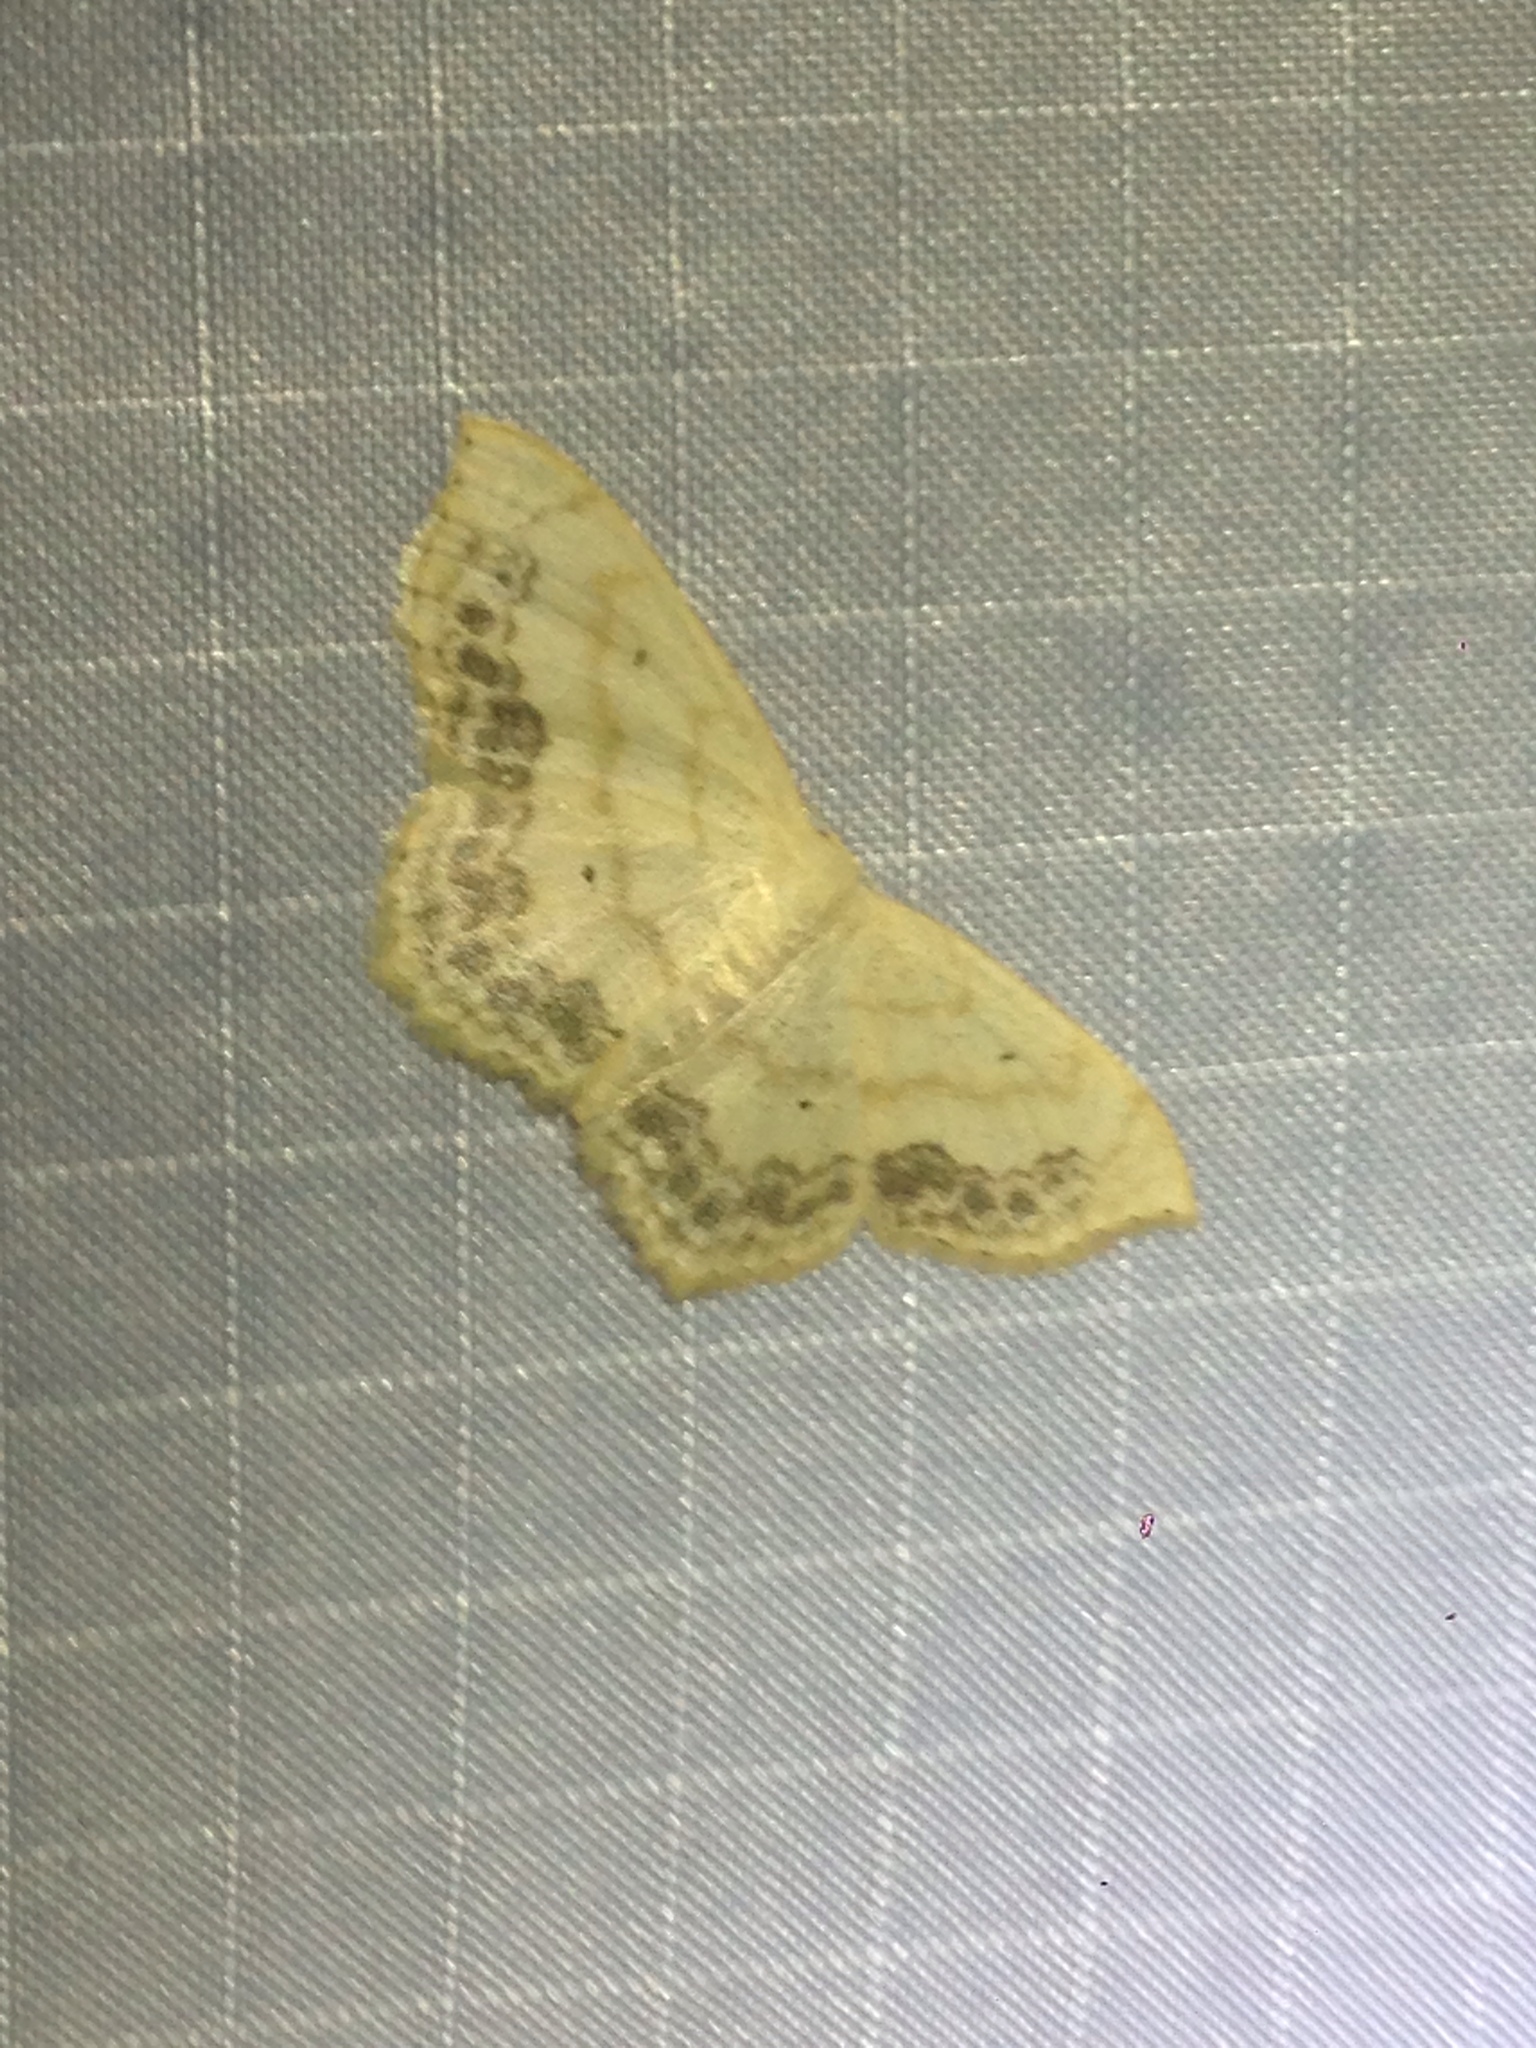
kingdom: Animalia
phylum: Arthropoda
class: Insecta
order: Lepidoptera
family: Geometridae
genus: Scopula
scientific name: Scopula limboundata
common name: Large lace border
